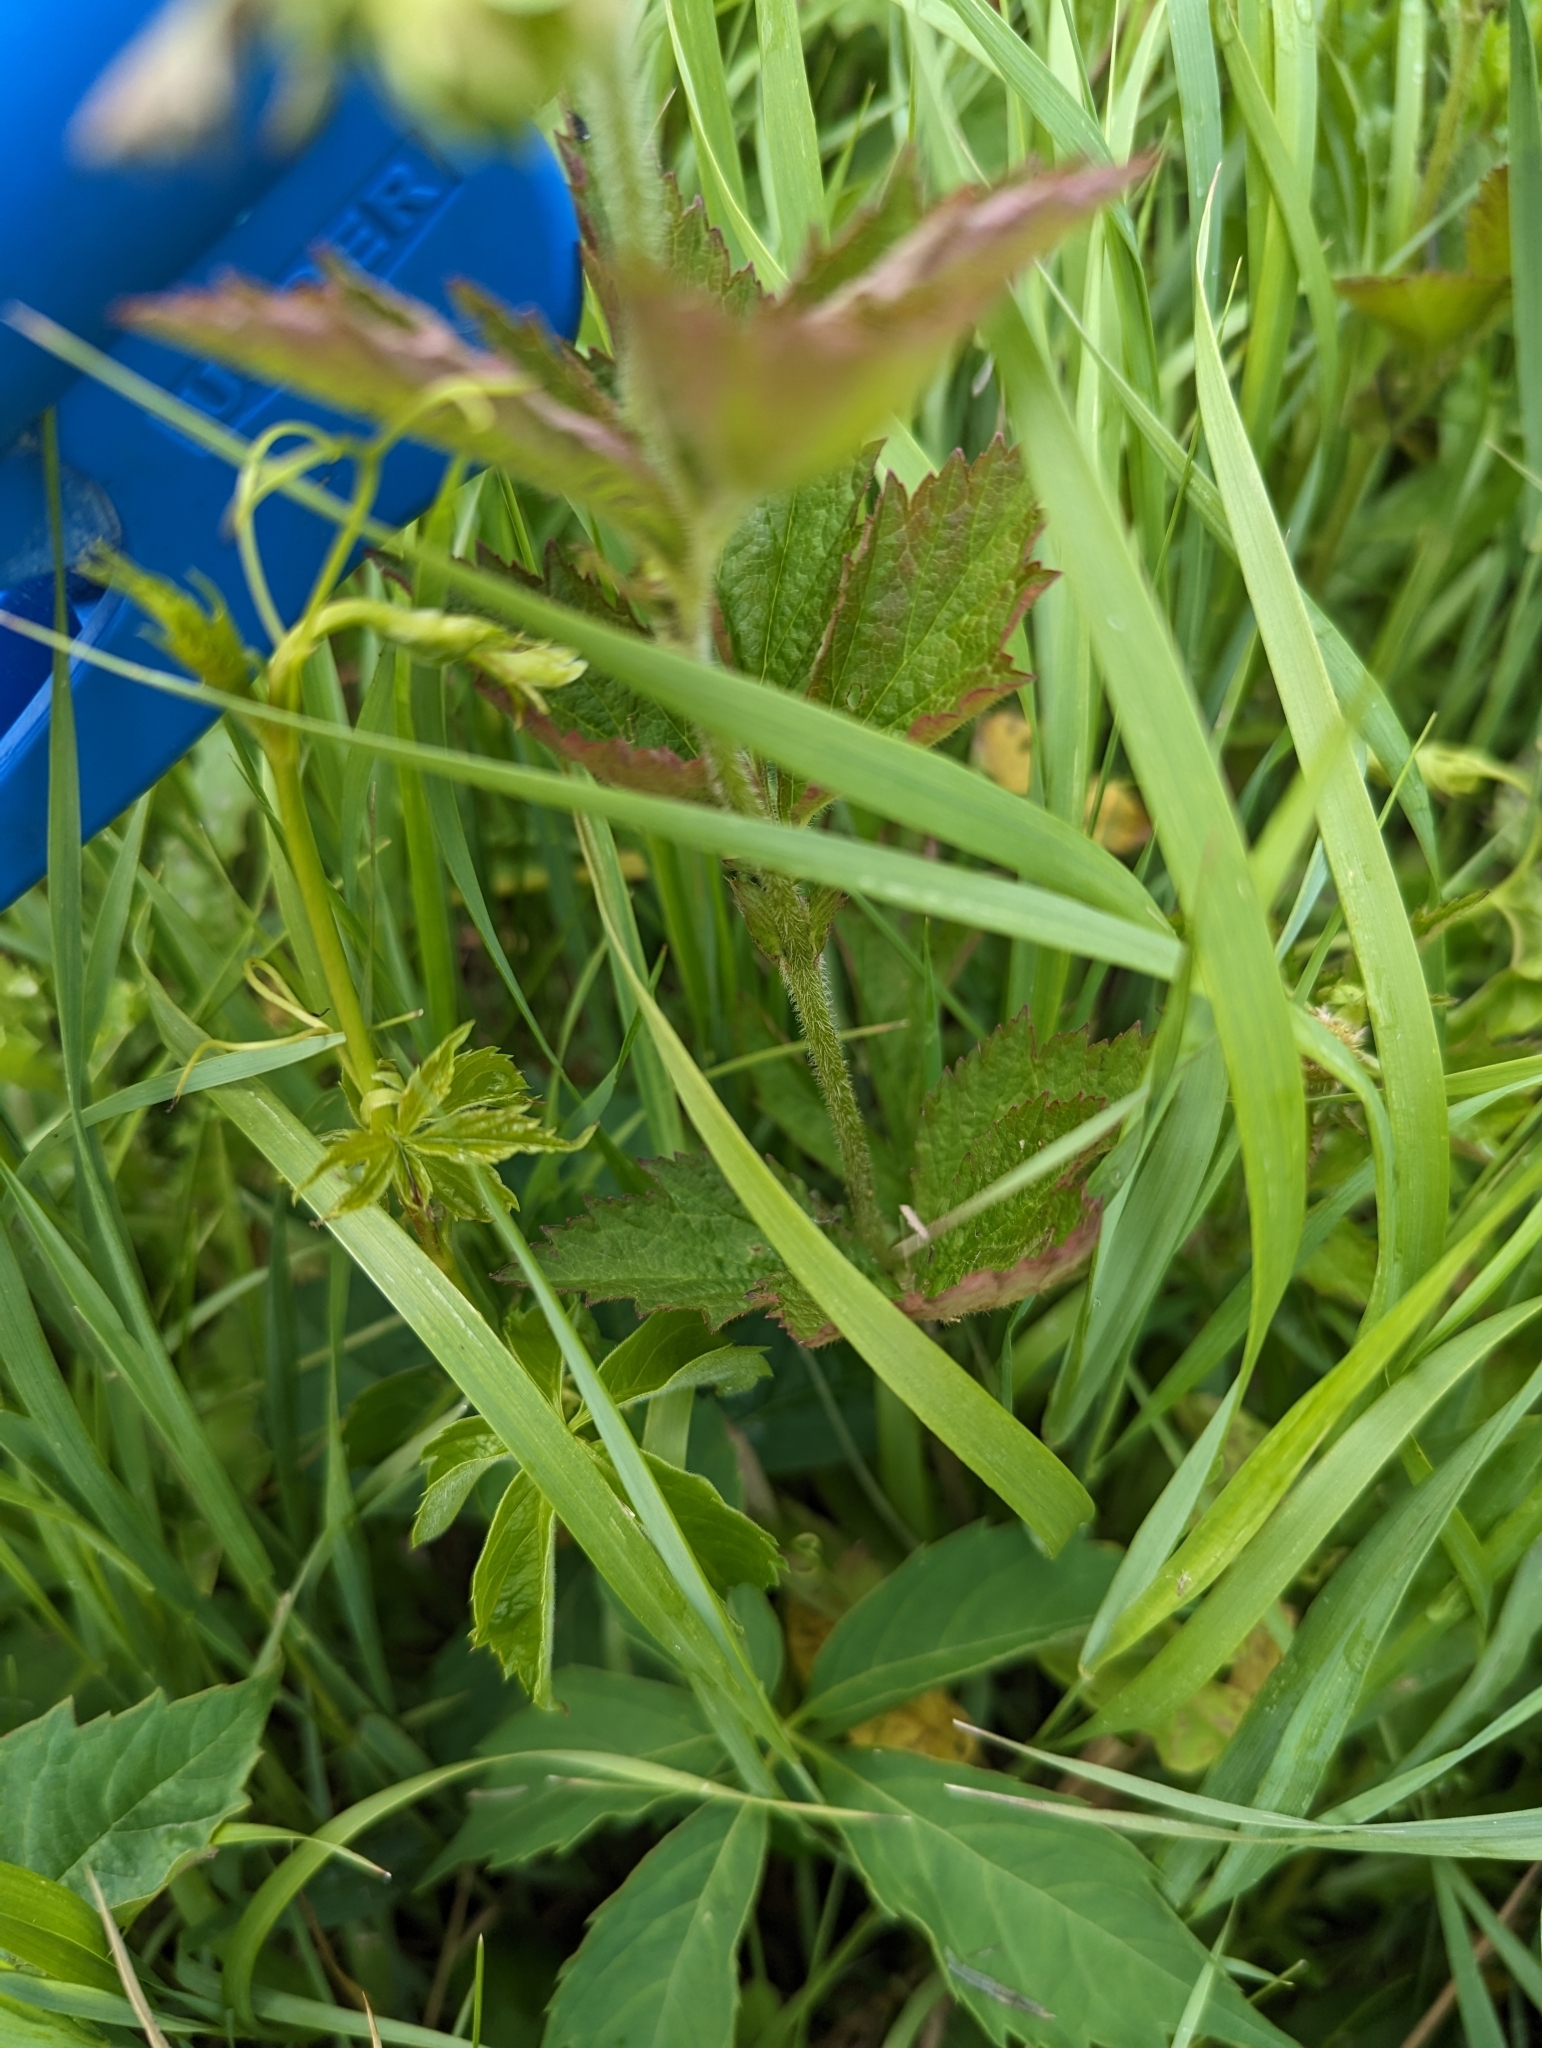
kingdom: Plantae
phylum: Tracheophyta
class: Magnoliopsida
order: Rosales
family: Rosaceae
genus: Geum
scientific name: Geum laciniatum
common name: Rough avens
